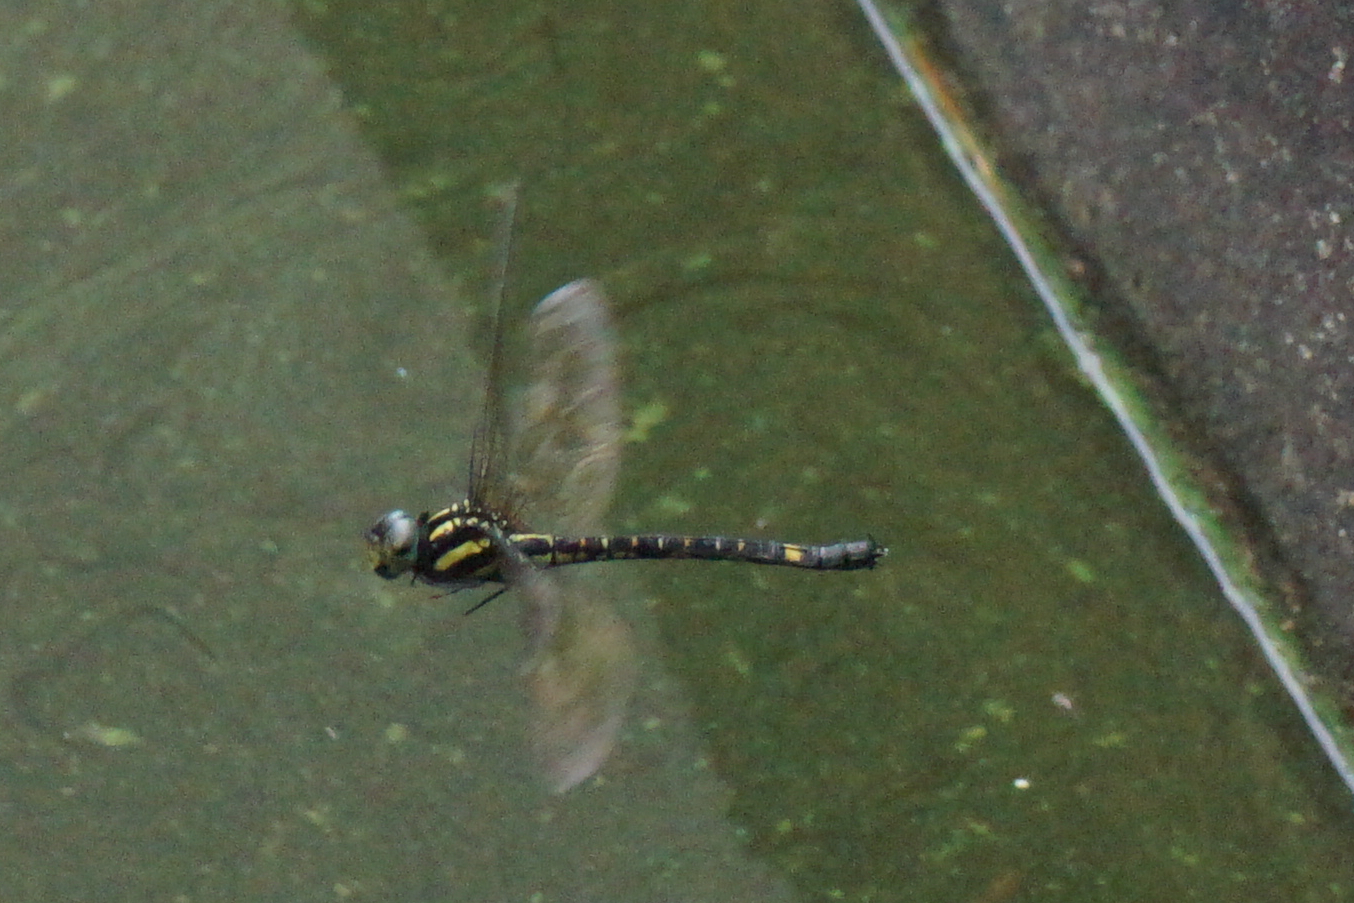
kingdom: Animalia
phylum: Arthropoda
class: Insecta
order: Odonata
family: Aeshnidae
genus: Indaeschna
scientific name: Indaeschna
